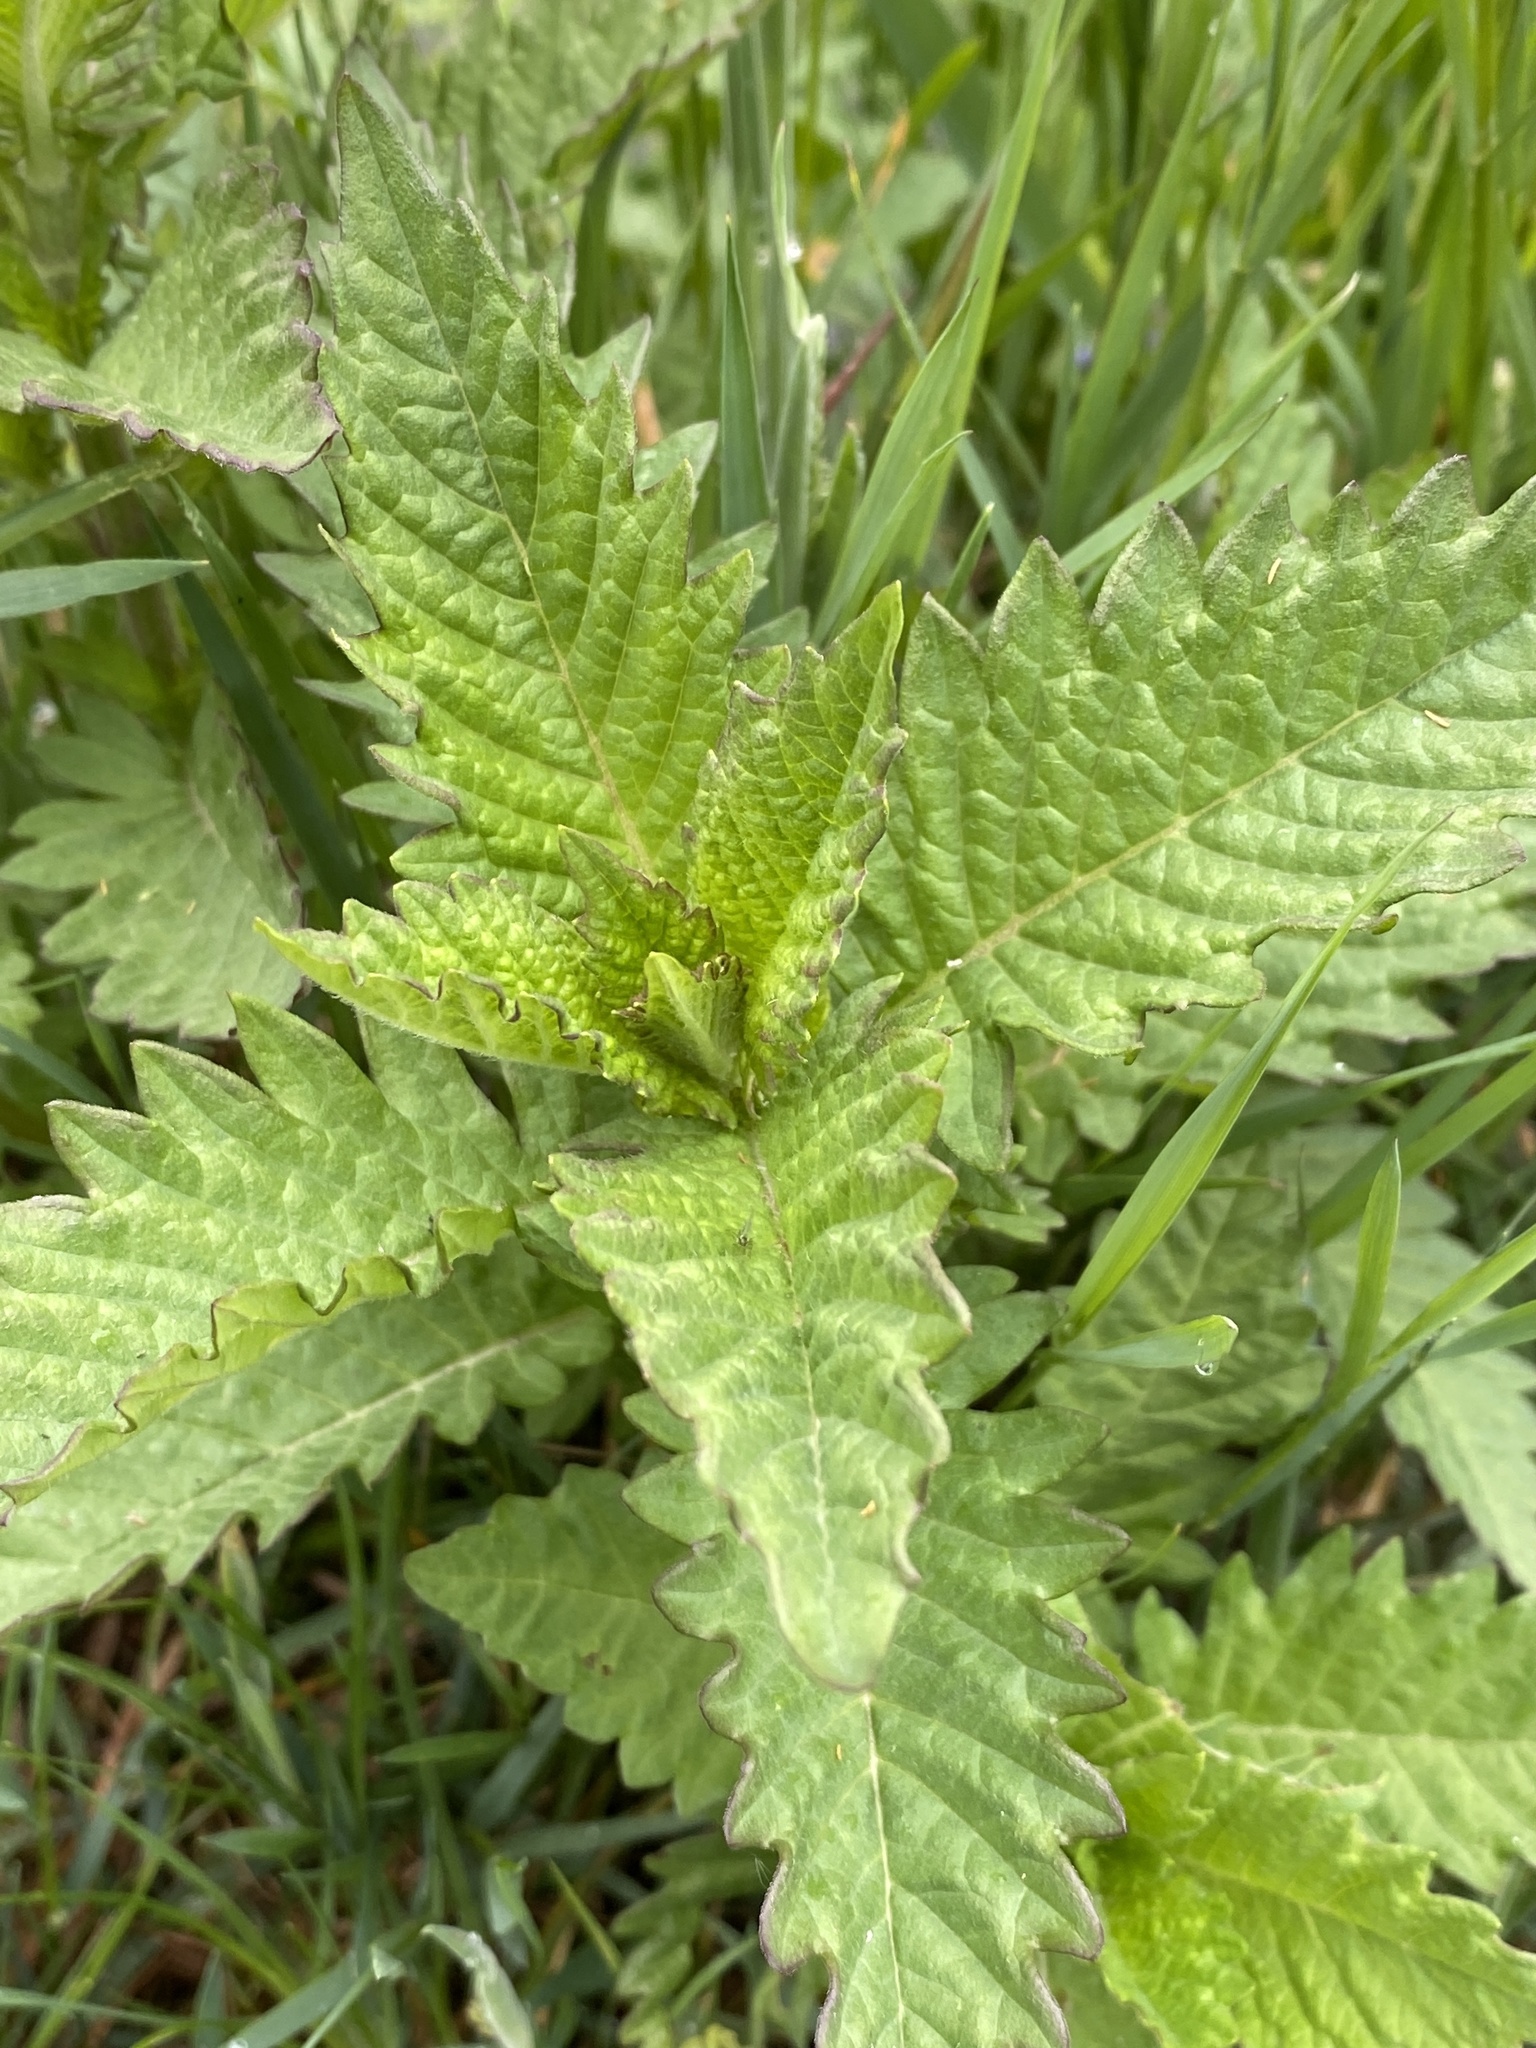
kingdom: Plantae
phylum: Tracheophyta
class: Magnoliopsida
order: Lamiales
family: Lamiaceae
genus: Lycopus
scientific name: Lycopus europaeus
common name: European bugleweed
